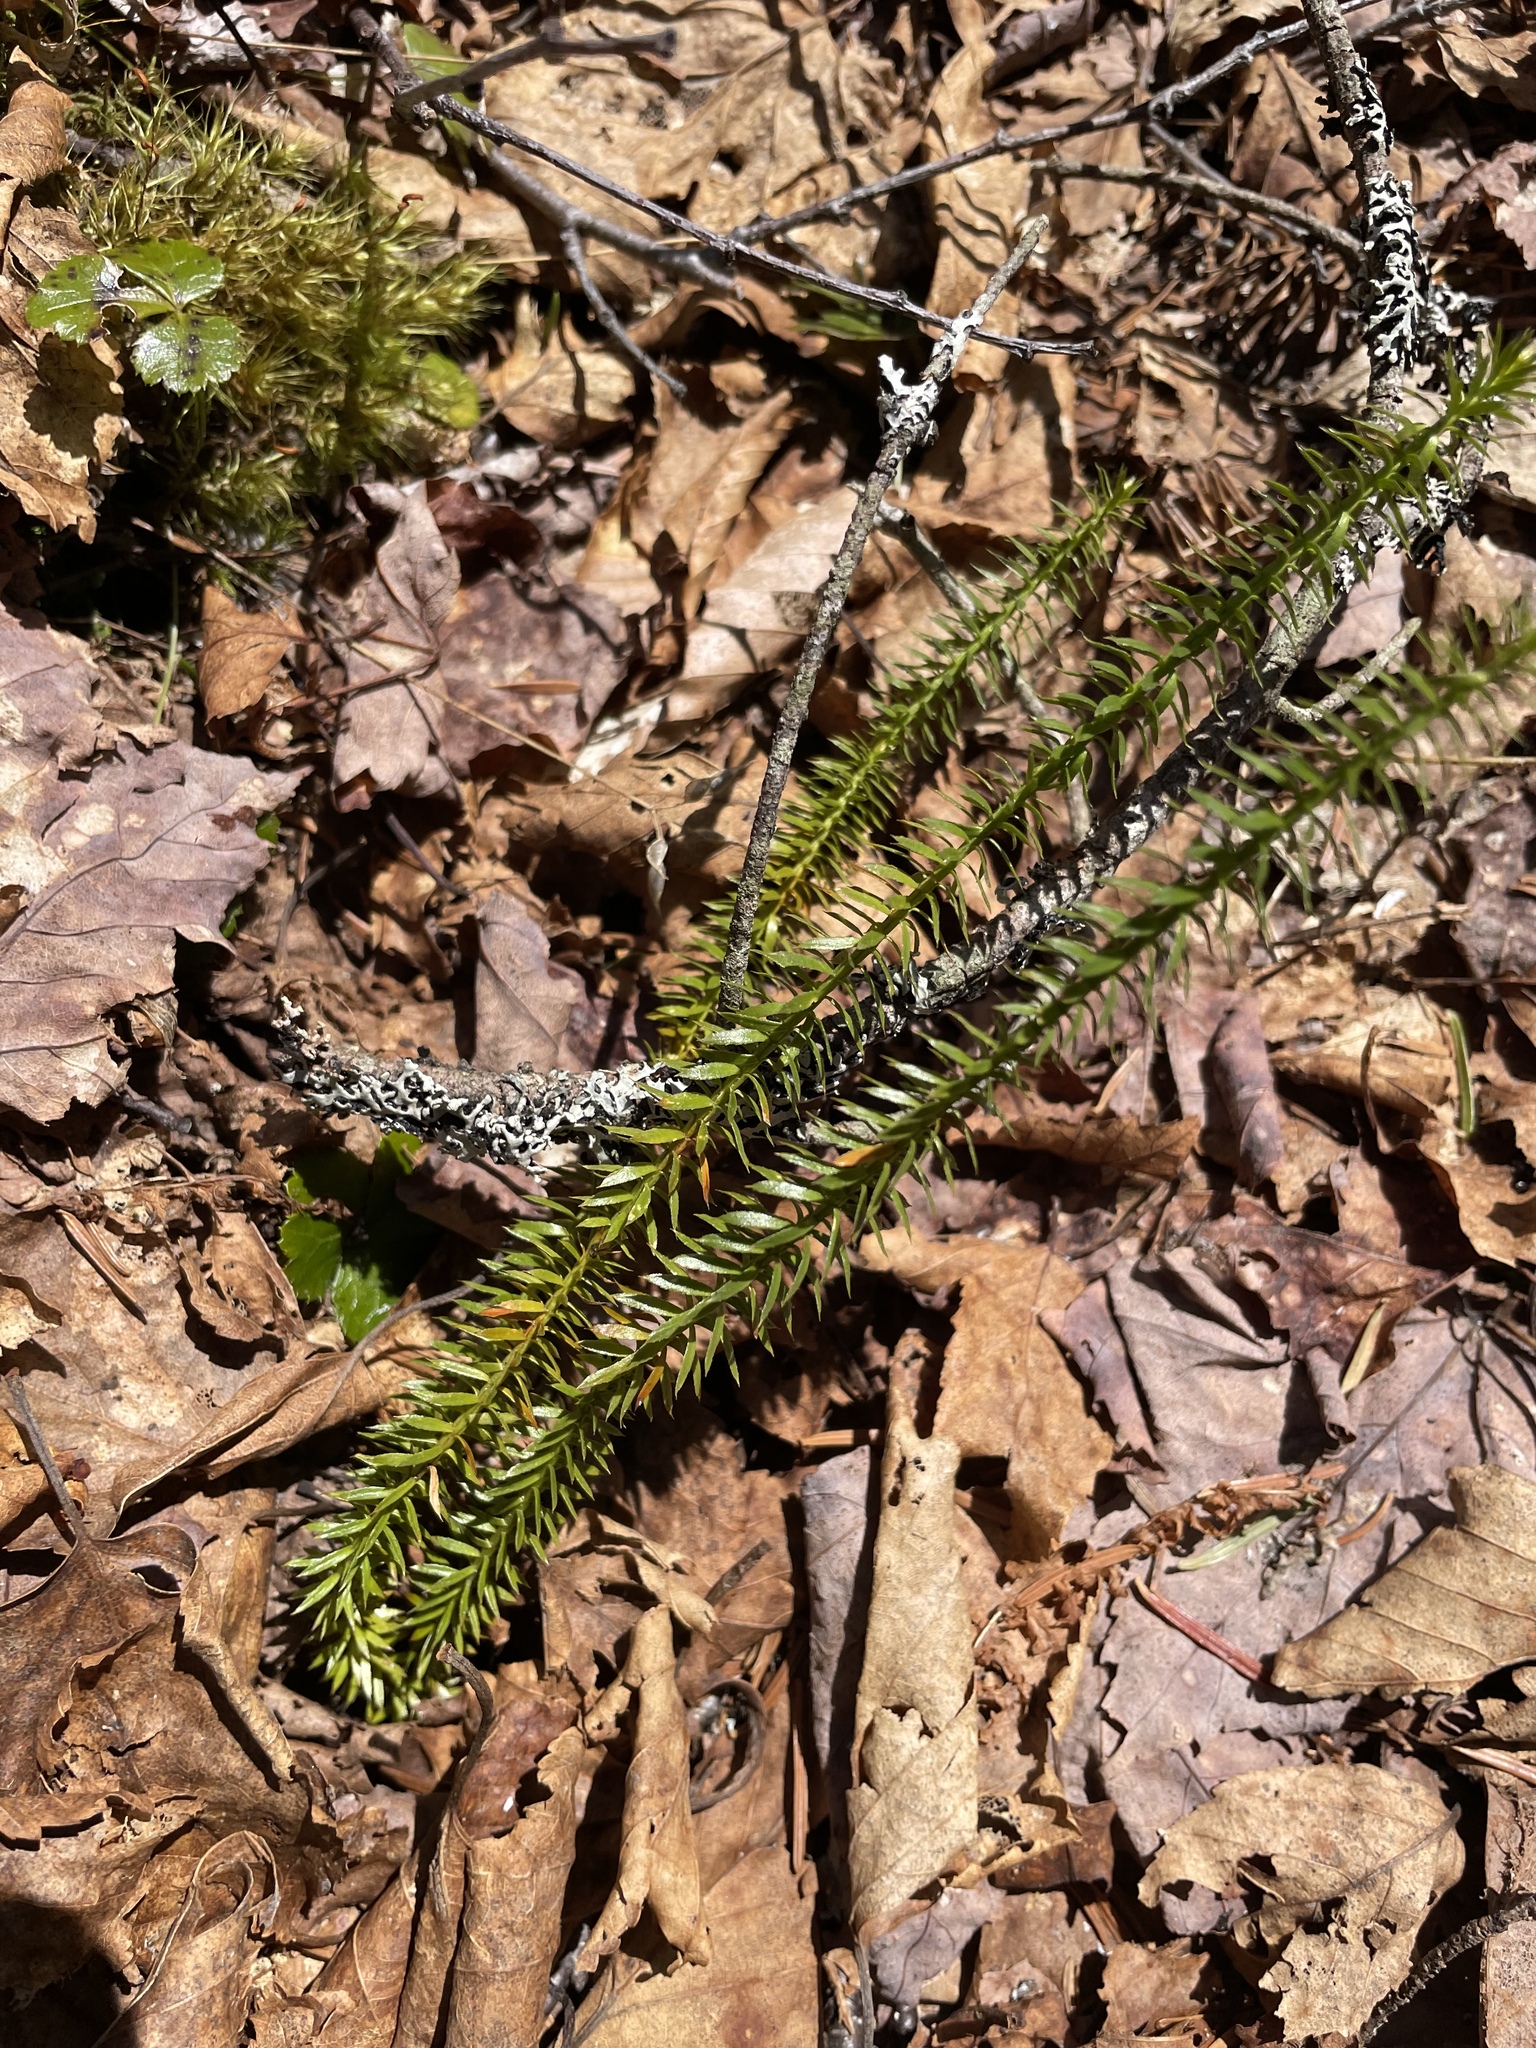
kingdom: Plantae
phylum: Tracheophyta
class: Lycopodiopsida
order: Lycopodiales
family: Lycopodiaceae
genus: Spinulum
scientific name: Spinulum annotinum
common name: Interrupted club-moss
